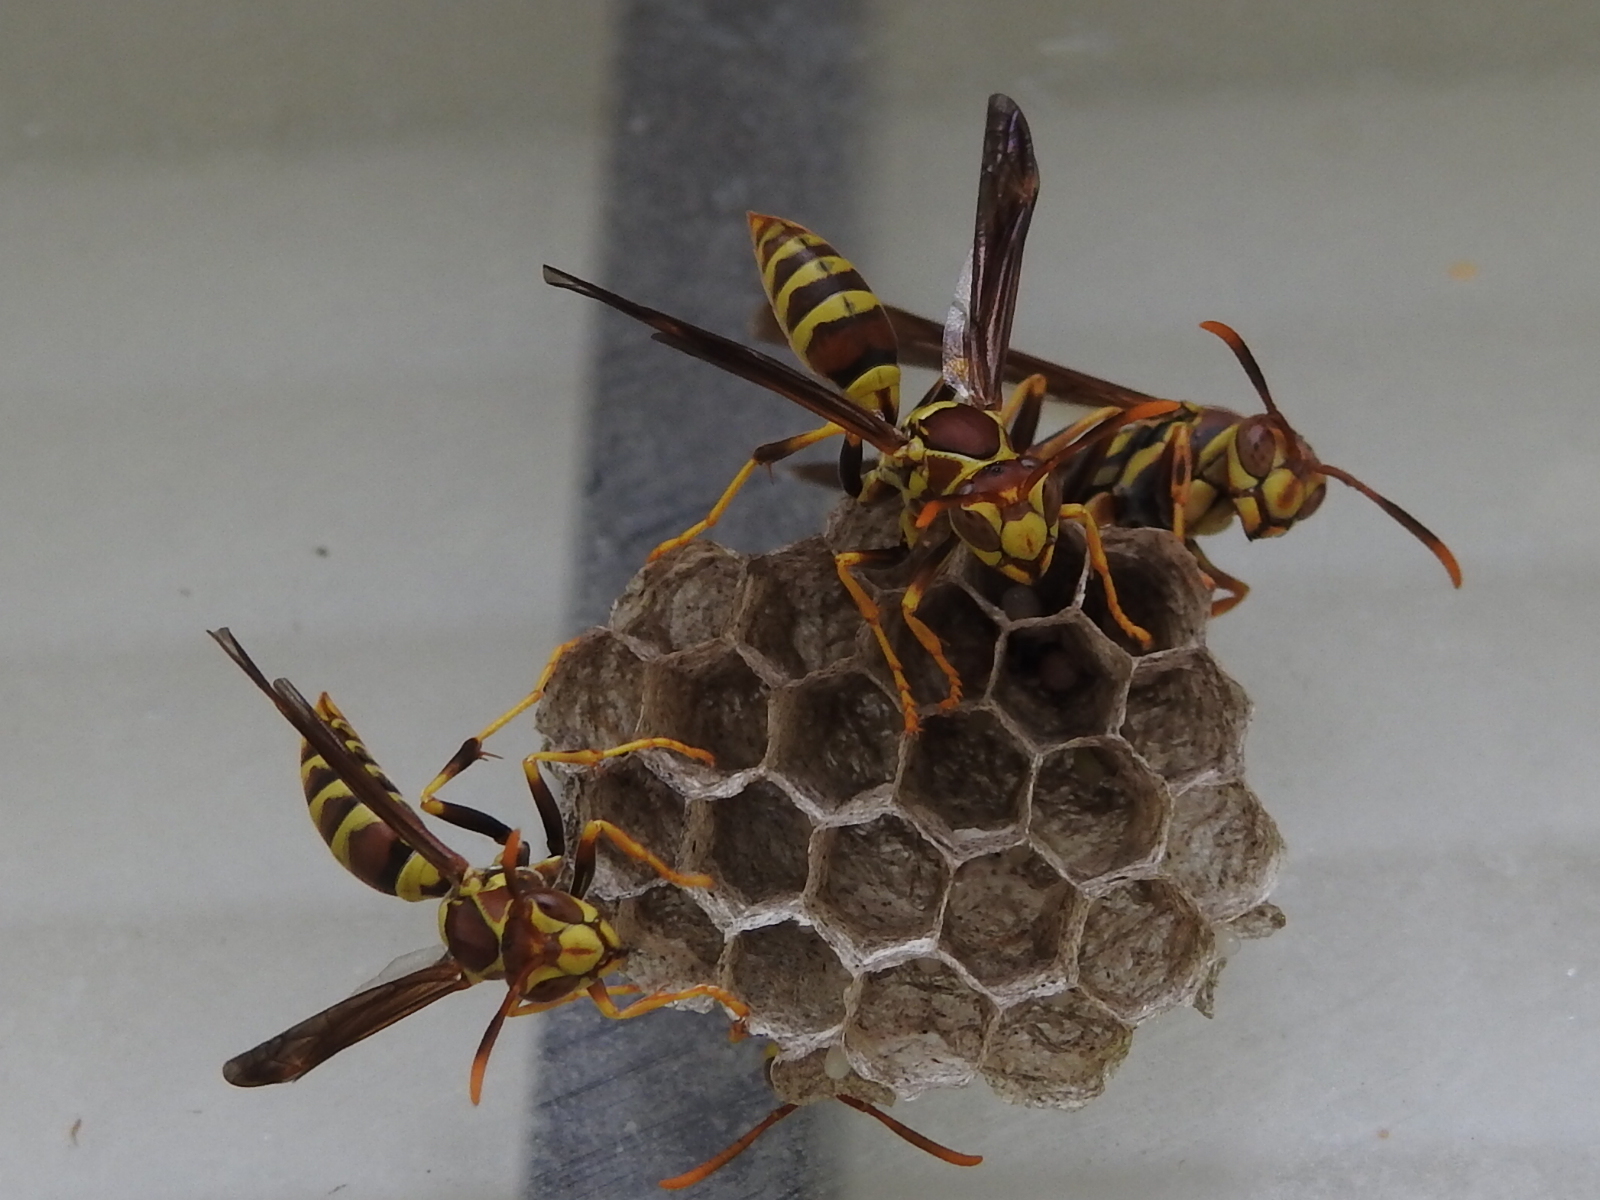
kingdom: Animalia
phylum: Arthropoda
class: Insecta
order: Hymenoptera
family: Eumenidae
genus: Polistes
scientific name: Polistes exclamans
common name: Paper wasp
